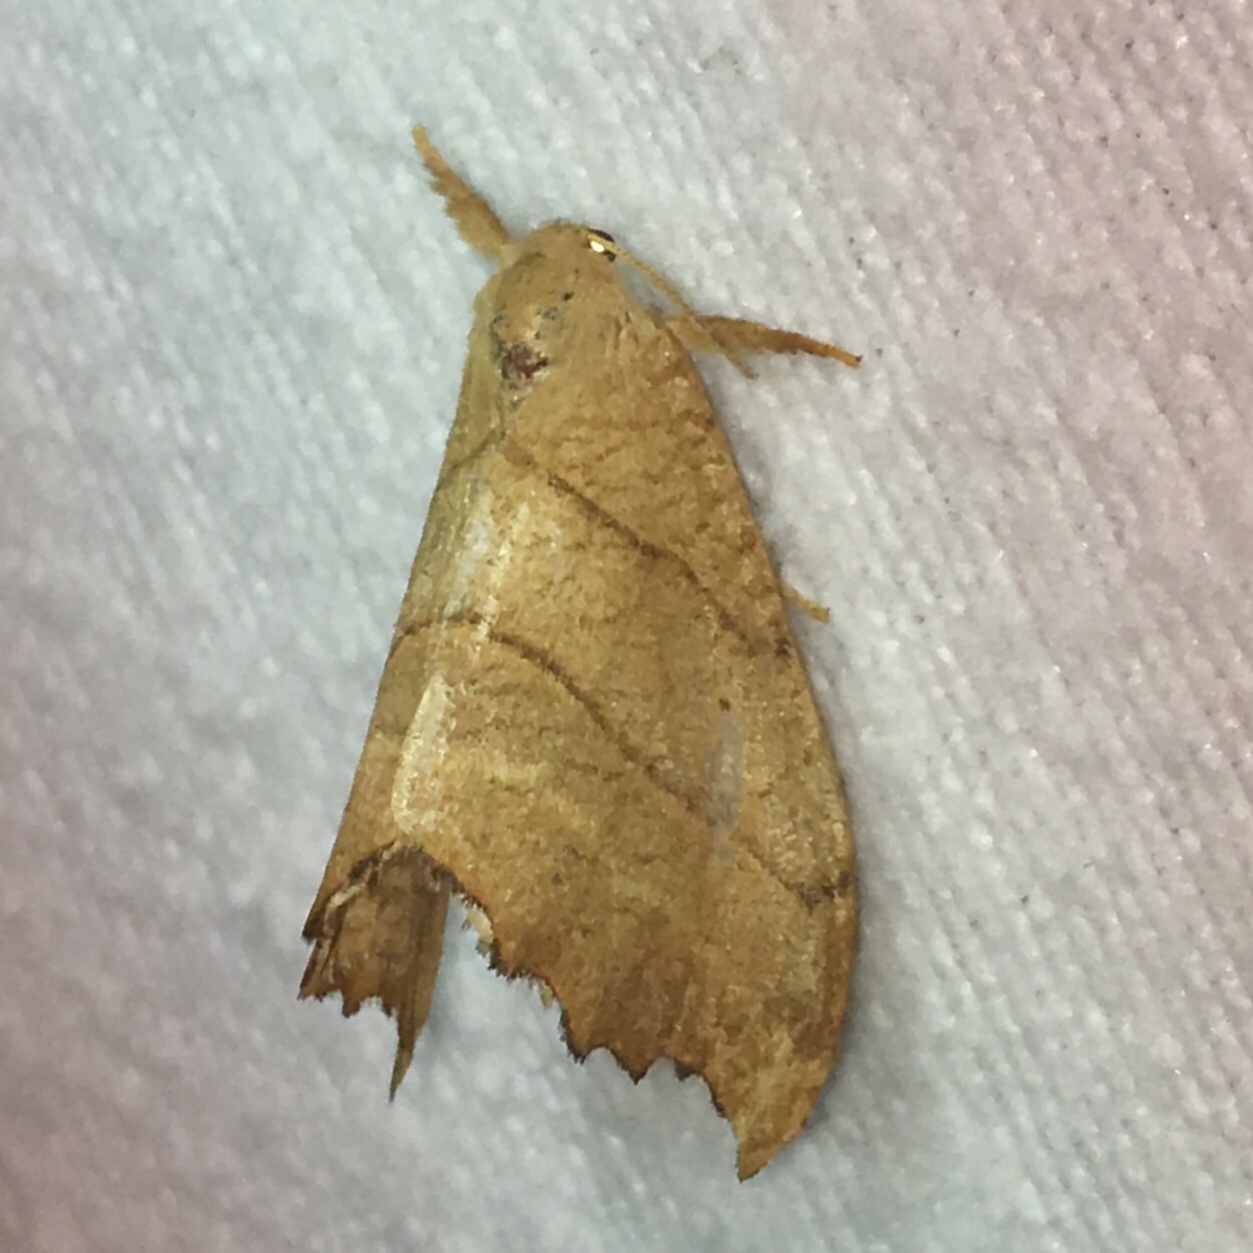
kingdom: Animalia
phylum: Arthropoda
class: Insecta
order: Lepidoptera
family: Drepanidae
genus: Falcaria
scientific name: Falcaria bilineata
